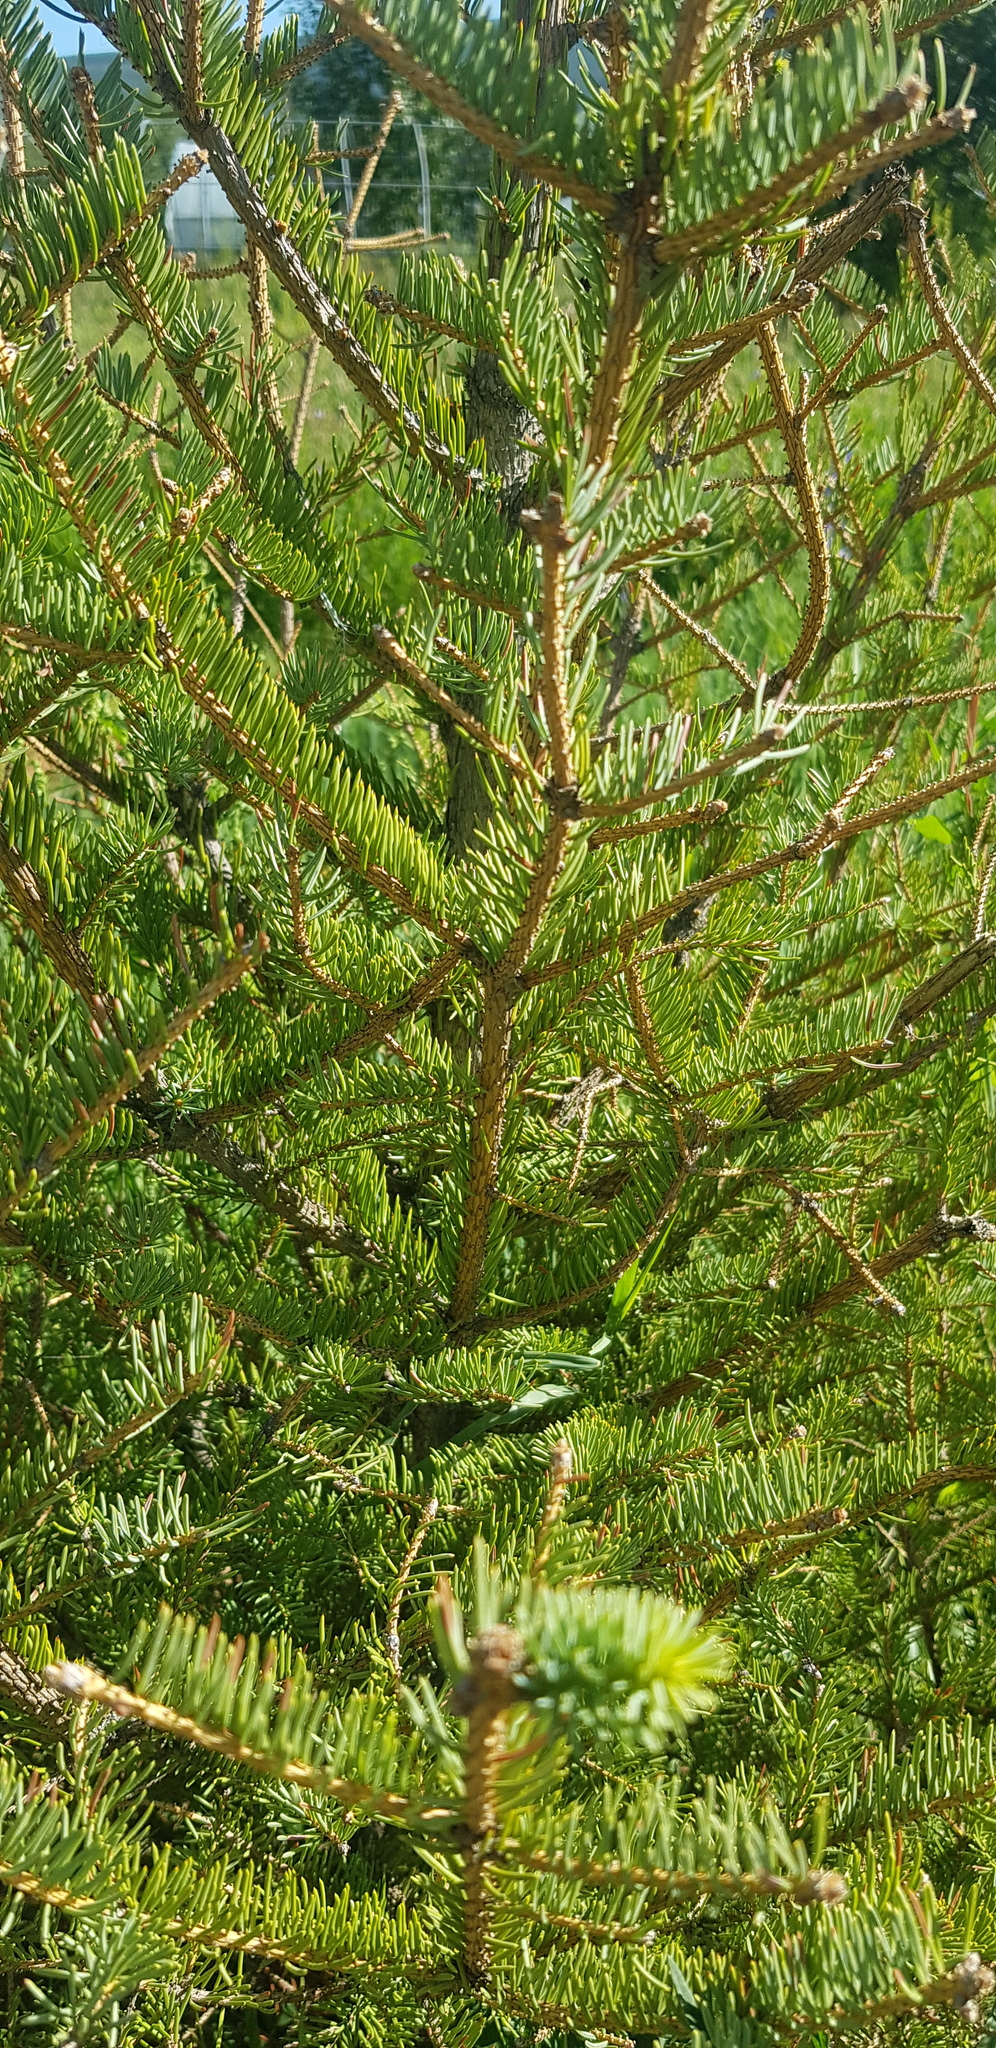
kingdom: Plantae
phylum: Tracheophyta
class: Pinopsida
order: Pinales
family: Pinaceae
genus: Picea
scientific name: Picea obovata
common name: Siberian spruce
